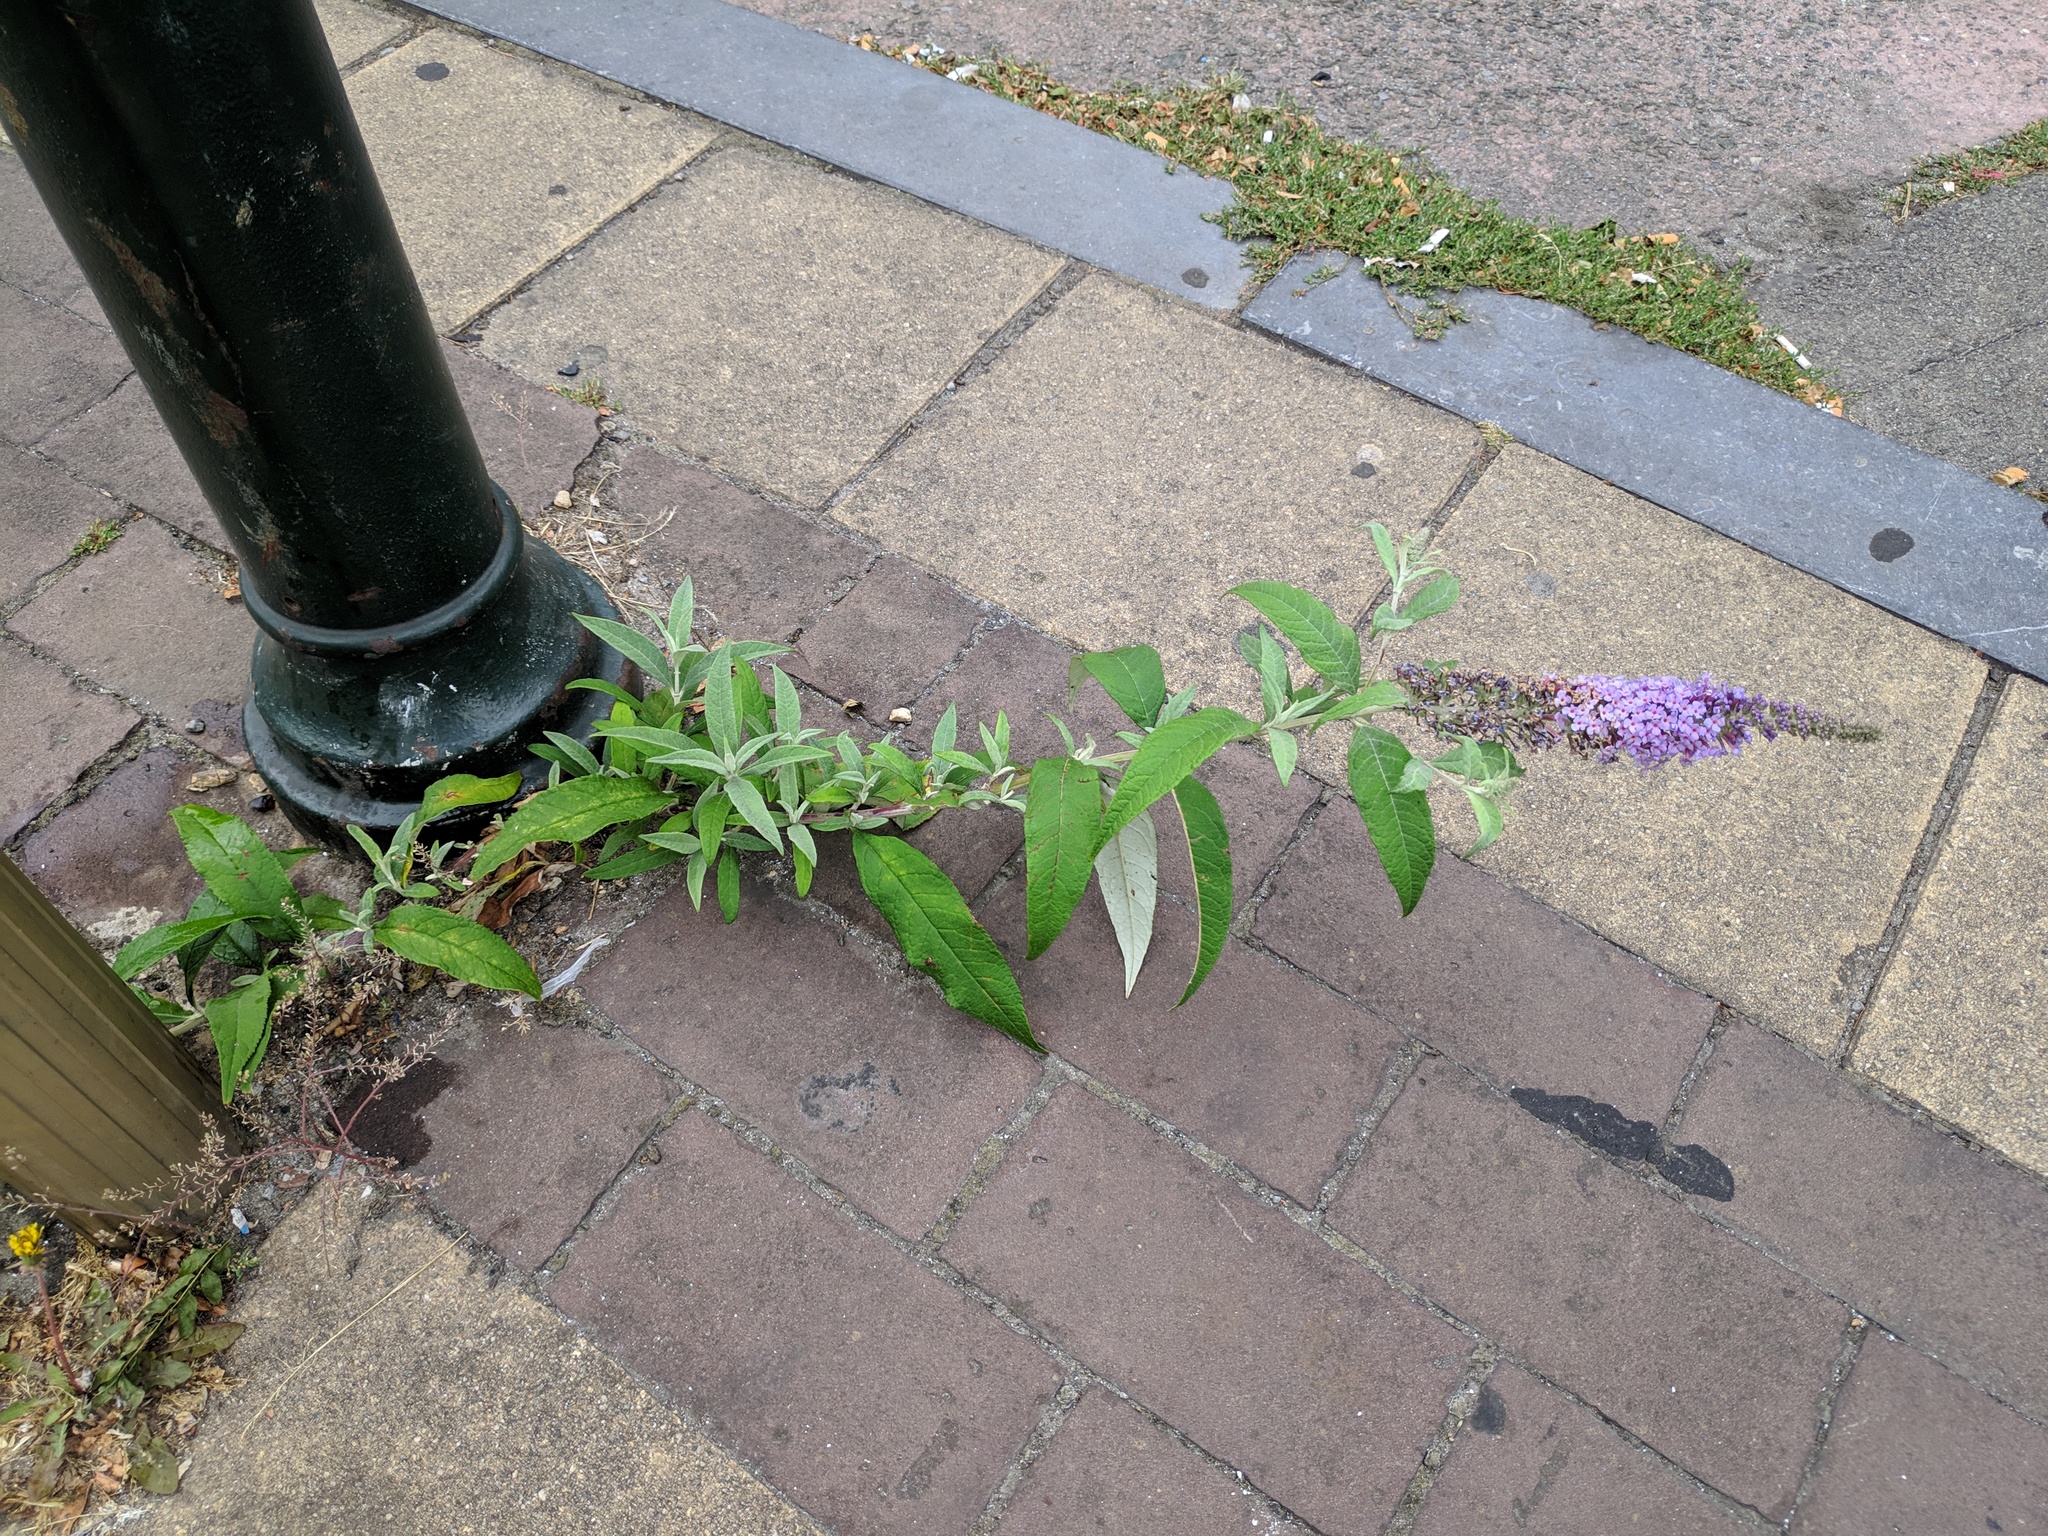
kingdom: Plantae
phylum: Tracheophyta
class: Magnoliopsida
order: Lamiales
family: Scrophulariaceae
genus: Buddleja
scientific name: Buddleja davidii
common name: Butterfly-bush
